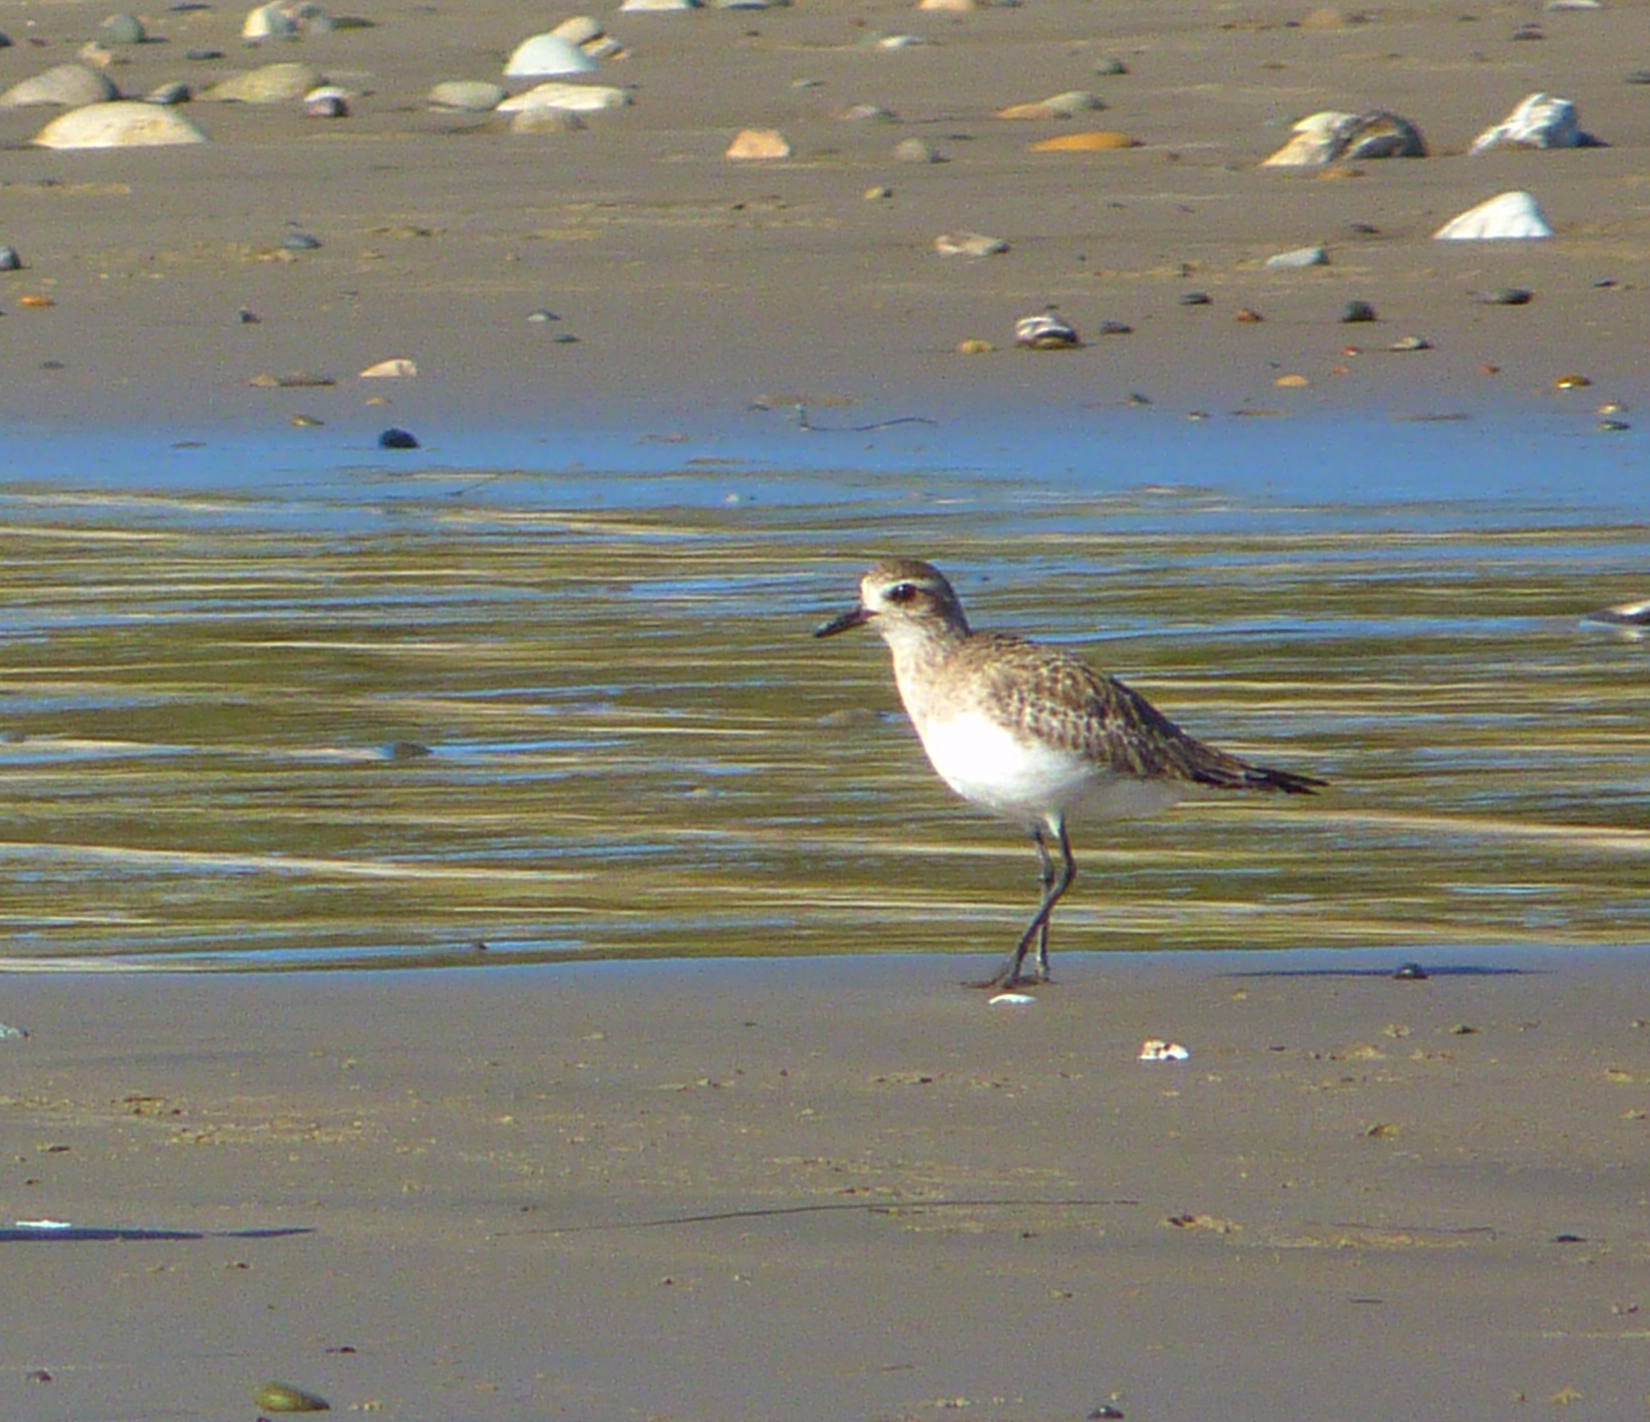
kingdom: Animalia
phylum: Chordata
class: Aves
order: Charadriiformes
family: Charadriidae
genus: Pluvialis
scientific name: Pluvialis squatarola
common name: Grey plover
